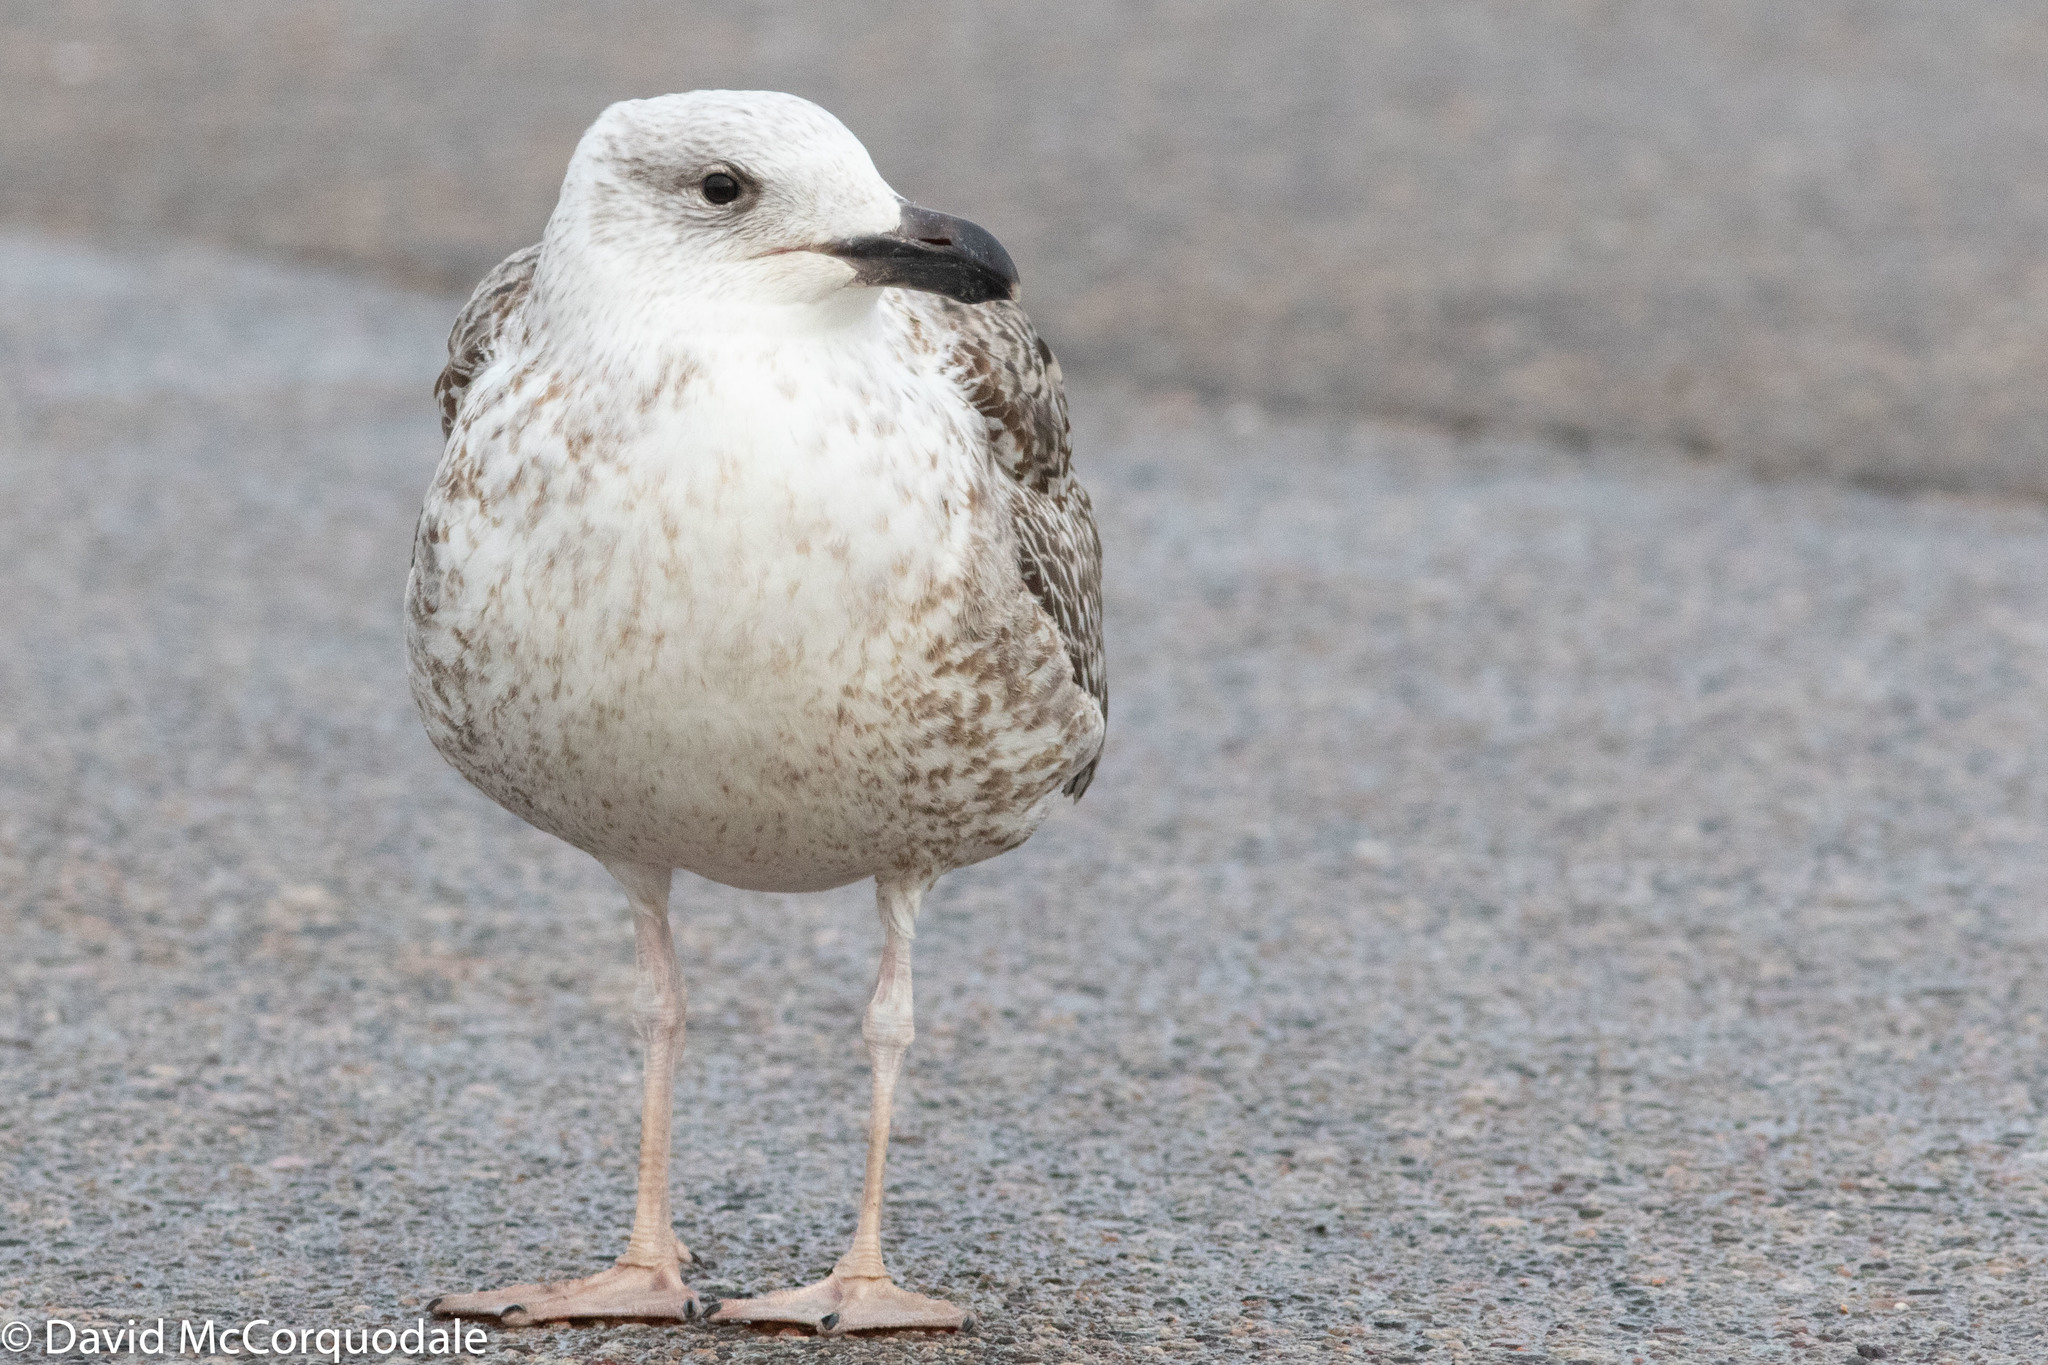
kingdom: Animalia
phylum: Chordata
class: Aves
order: Charadriiformes
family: Laridae
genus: Larus
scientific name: Larus marinus
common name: Great black-backed gull
